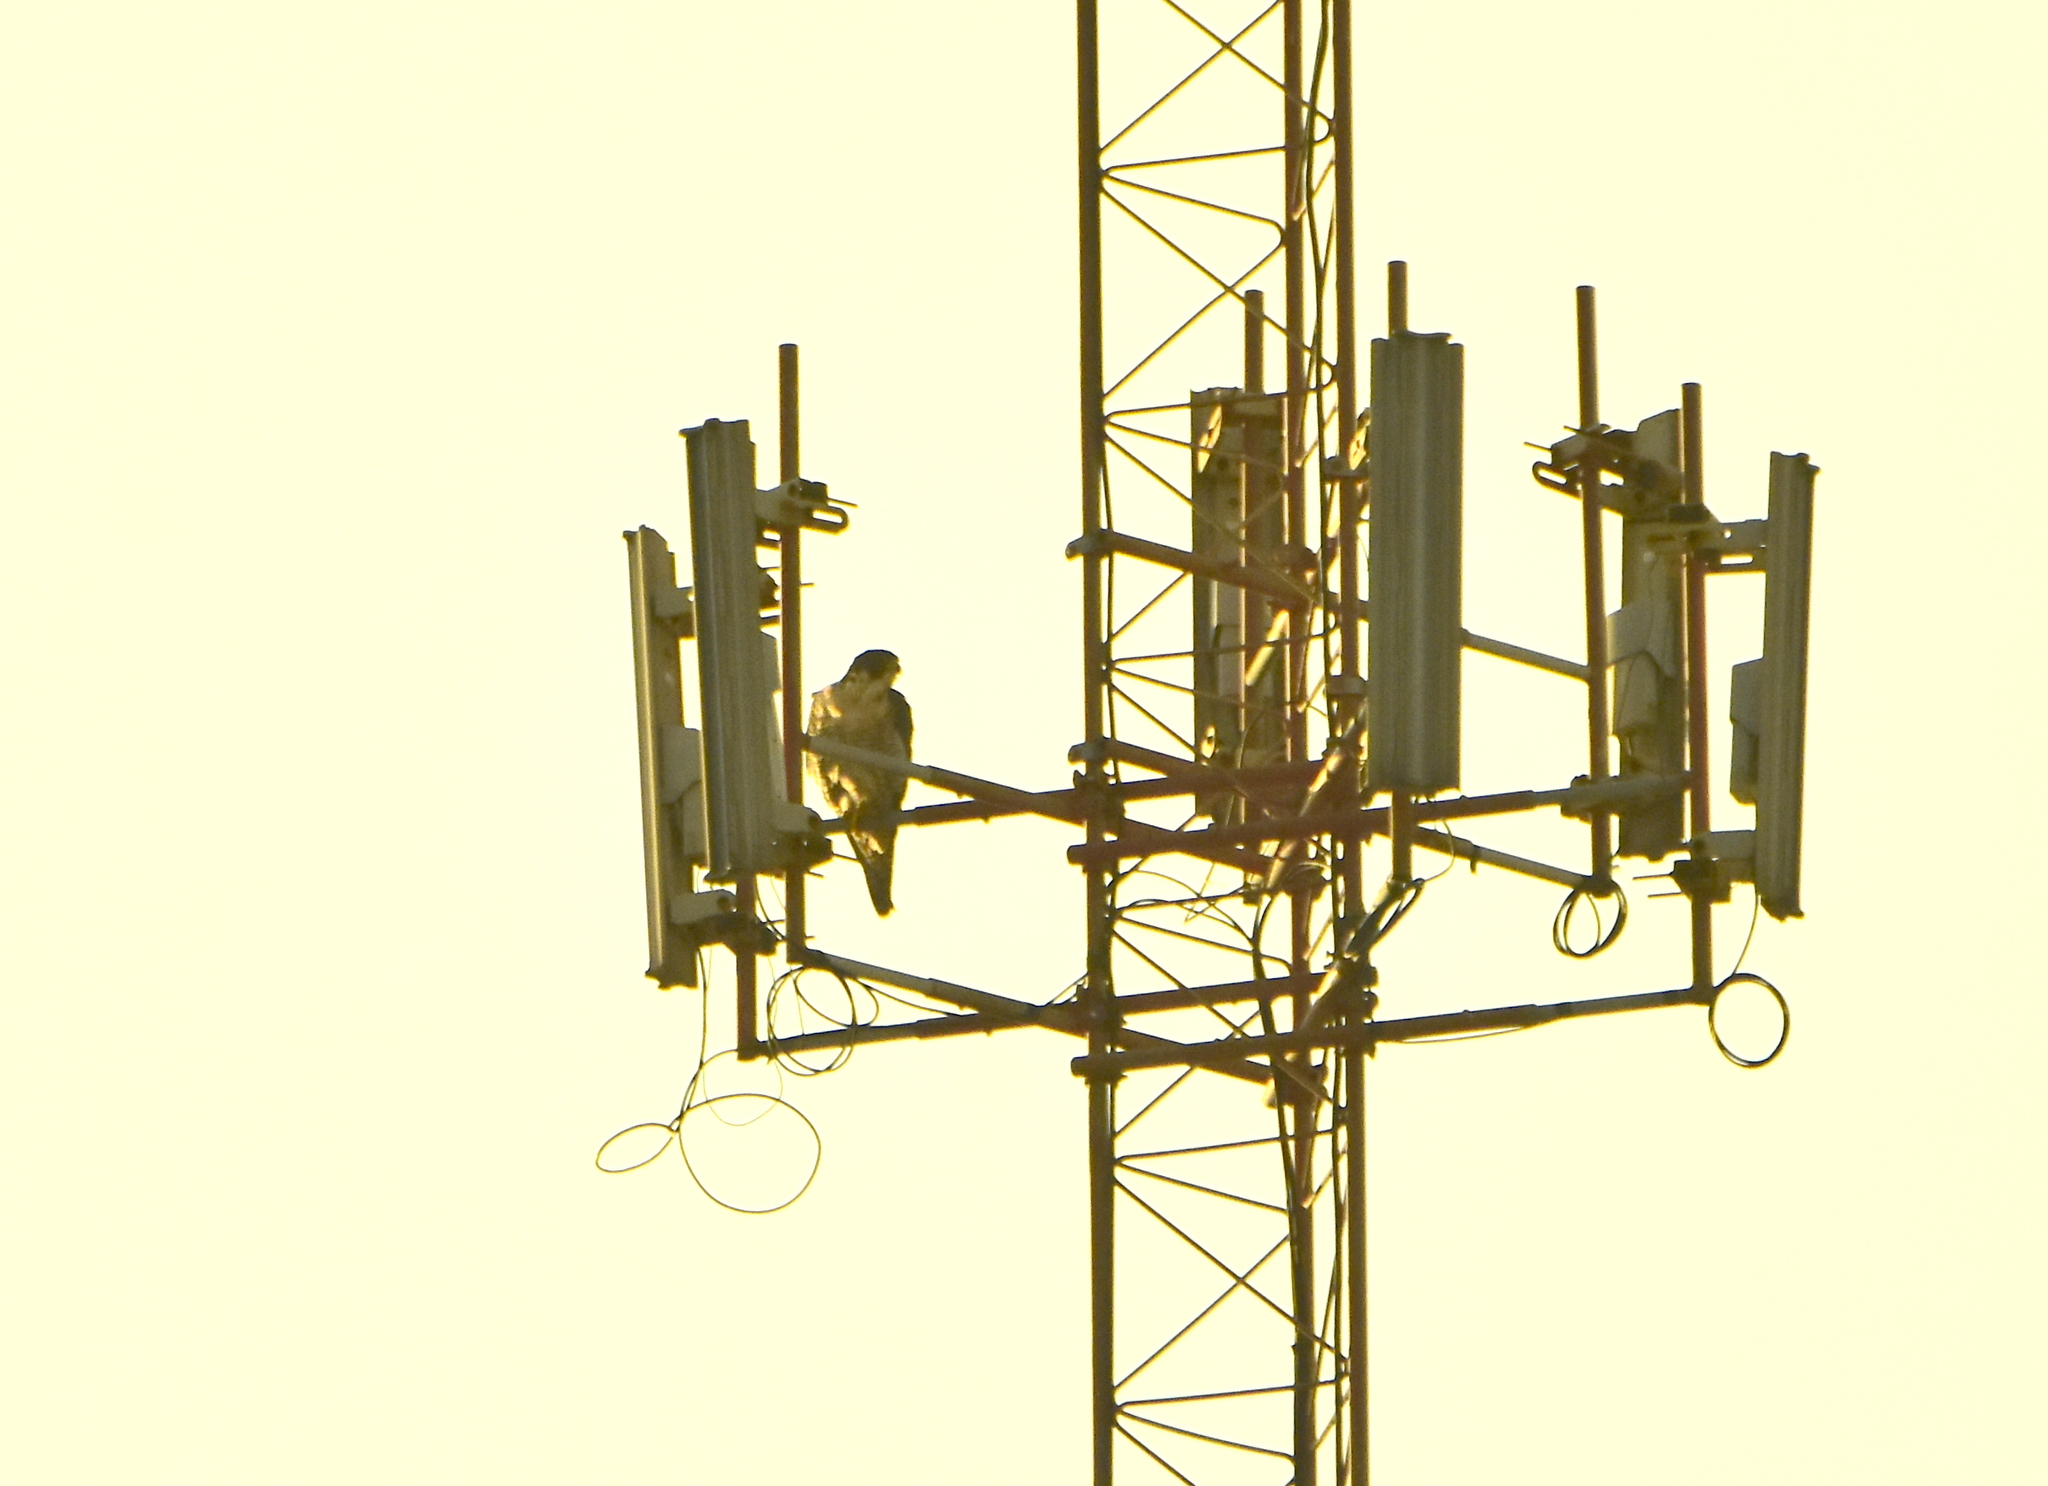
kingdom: Animalia
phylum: Chordata
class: Aves
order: Falconiformes
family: Falconidae
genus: Falco
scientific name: Falco peregrinus
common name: Peregrine falcon
